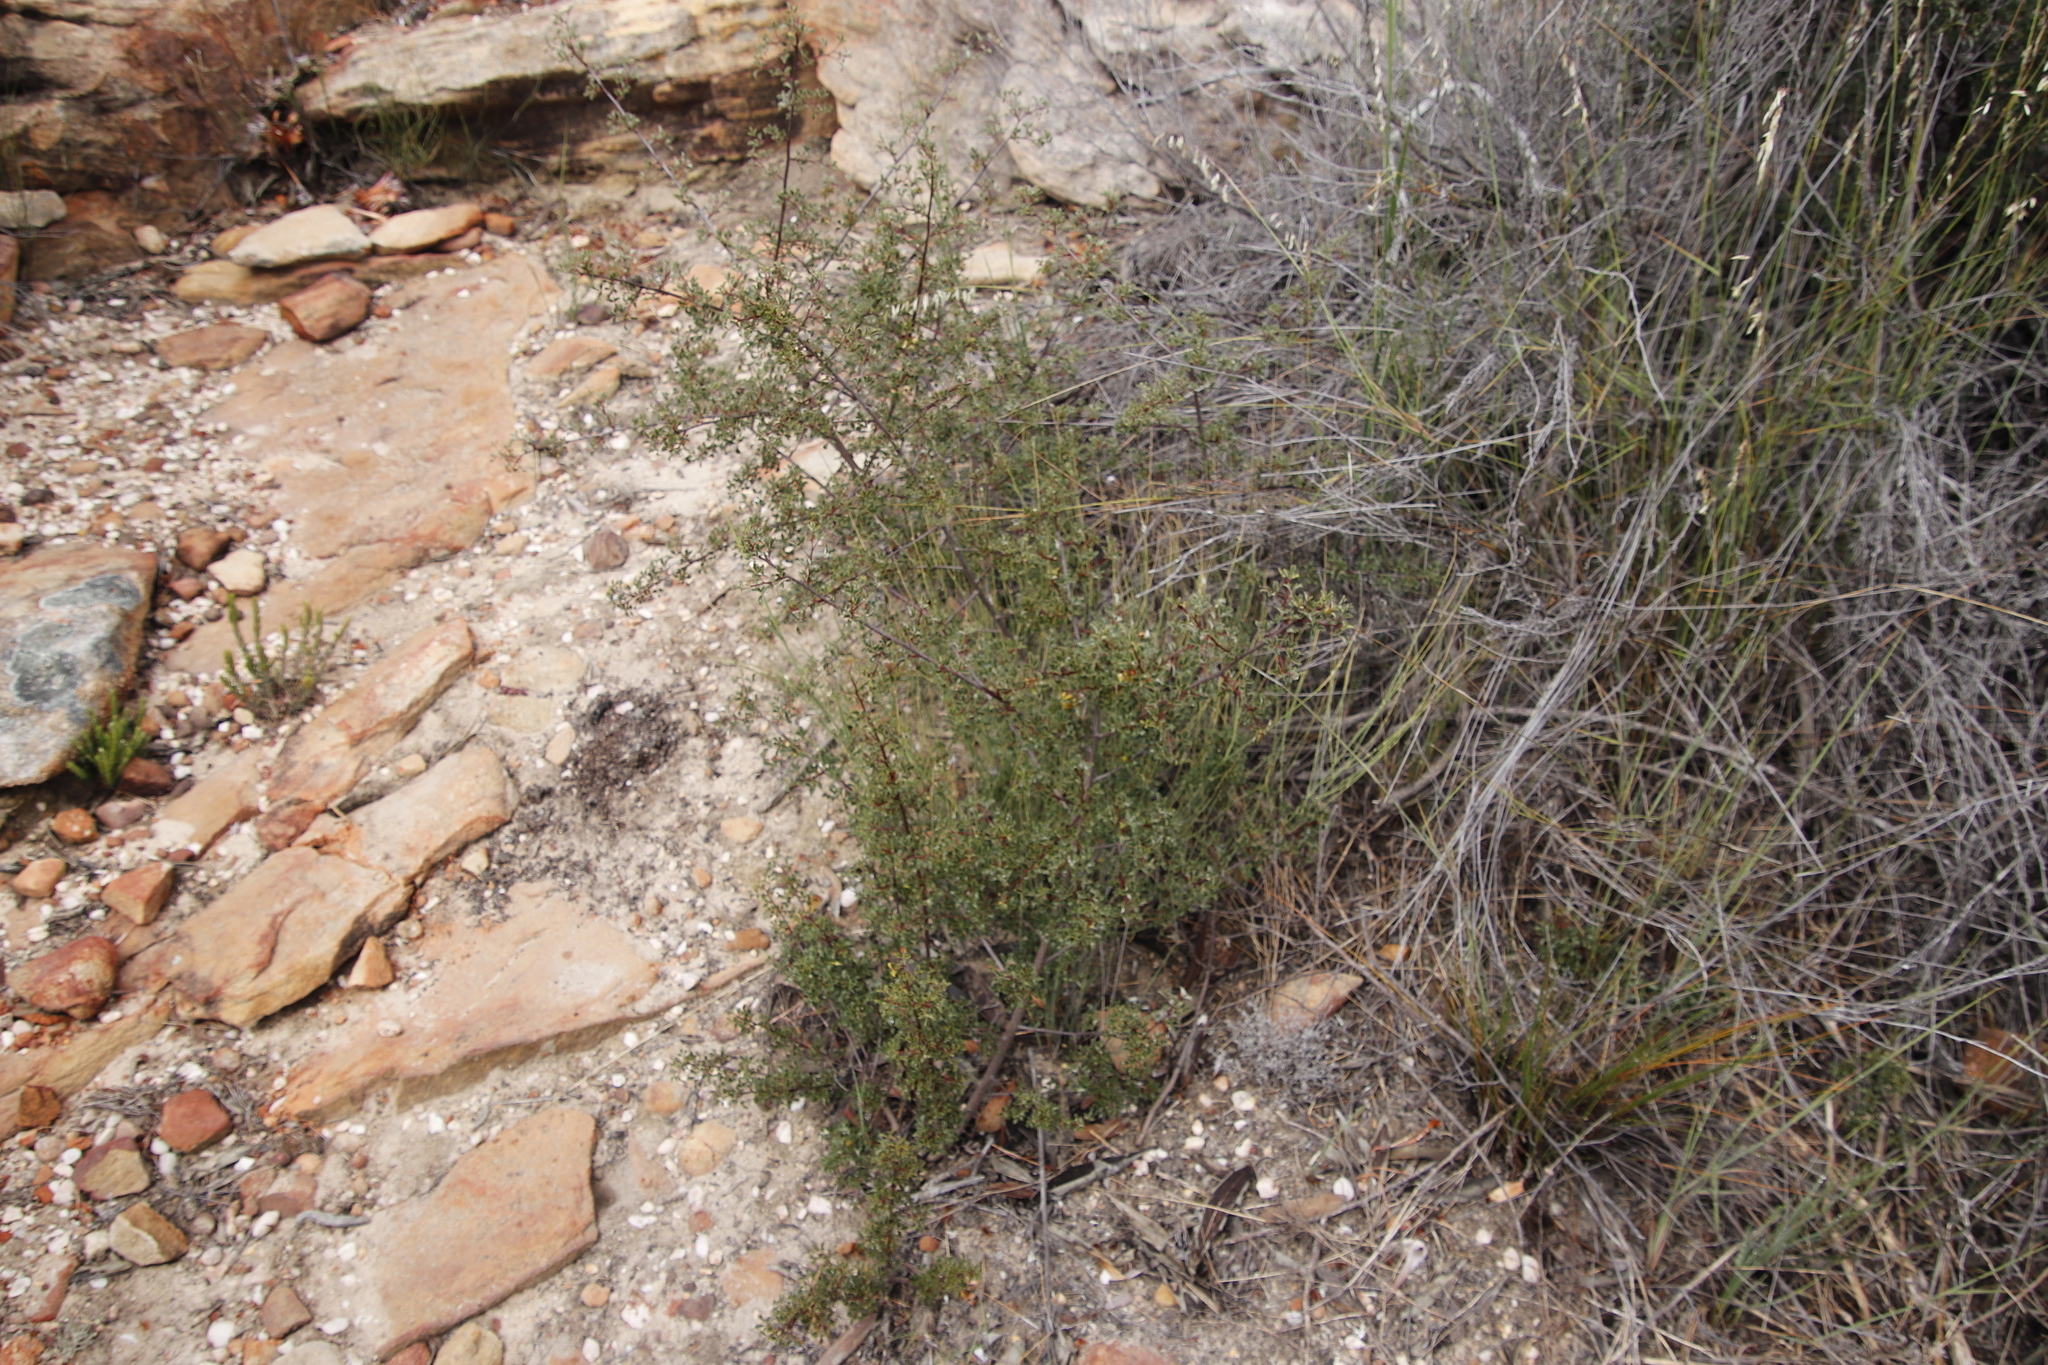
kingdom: Plantae
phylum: Tracheophyta
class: Magnoliopsida
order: Sapindales
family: Anacardiaceae
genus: Searsia
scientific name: Searsia dissecta
